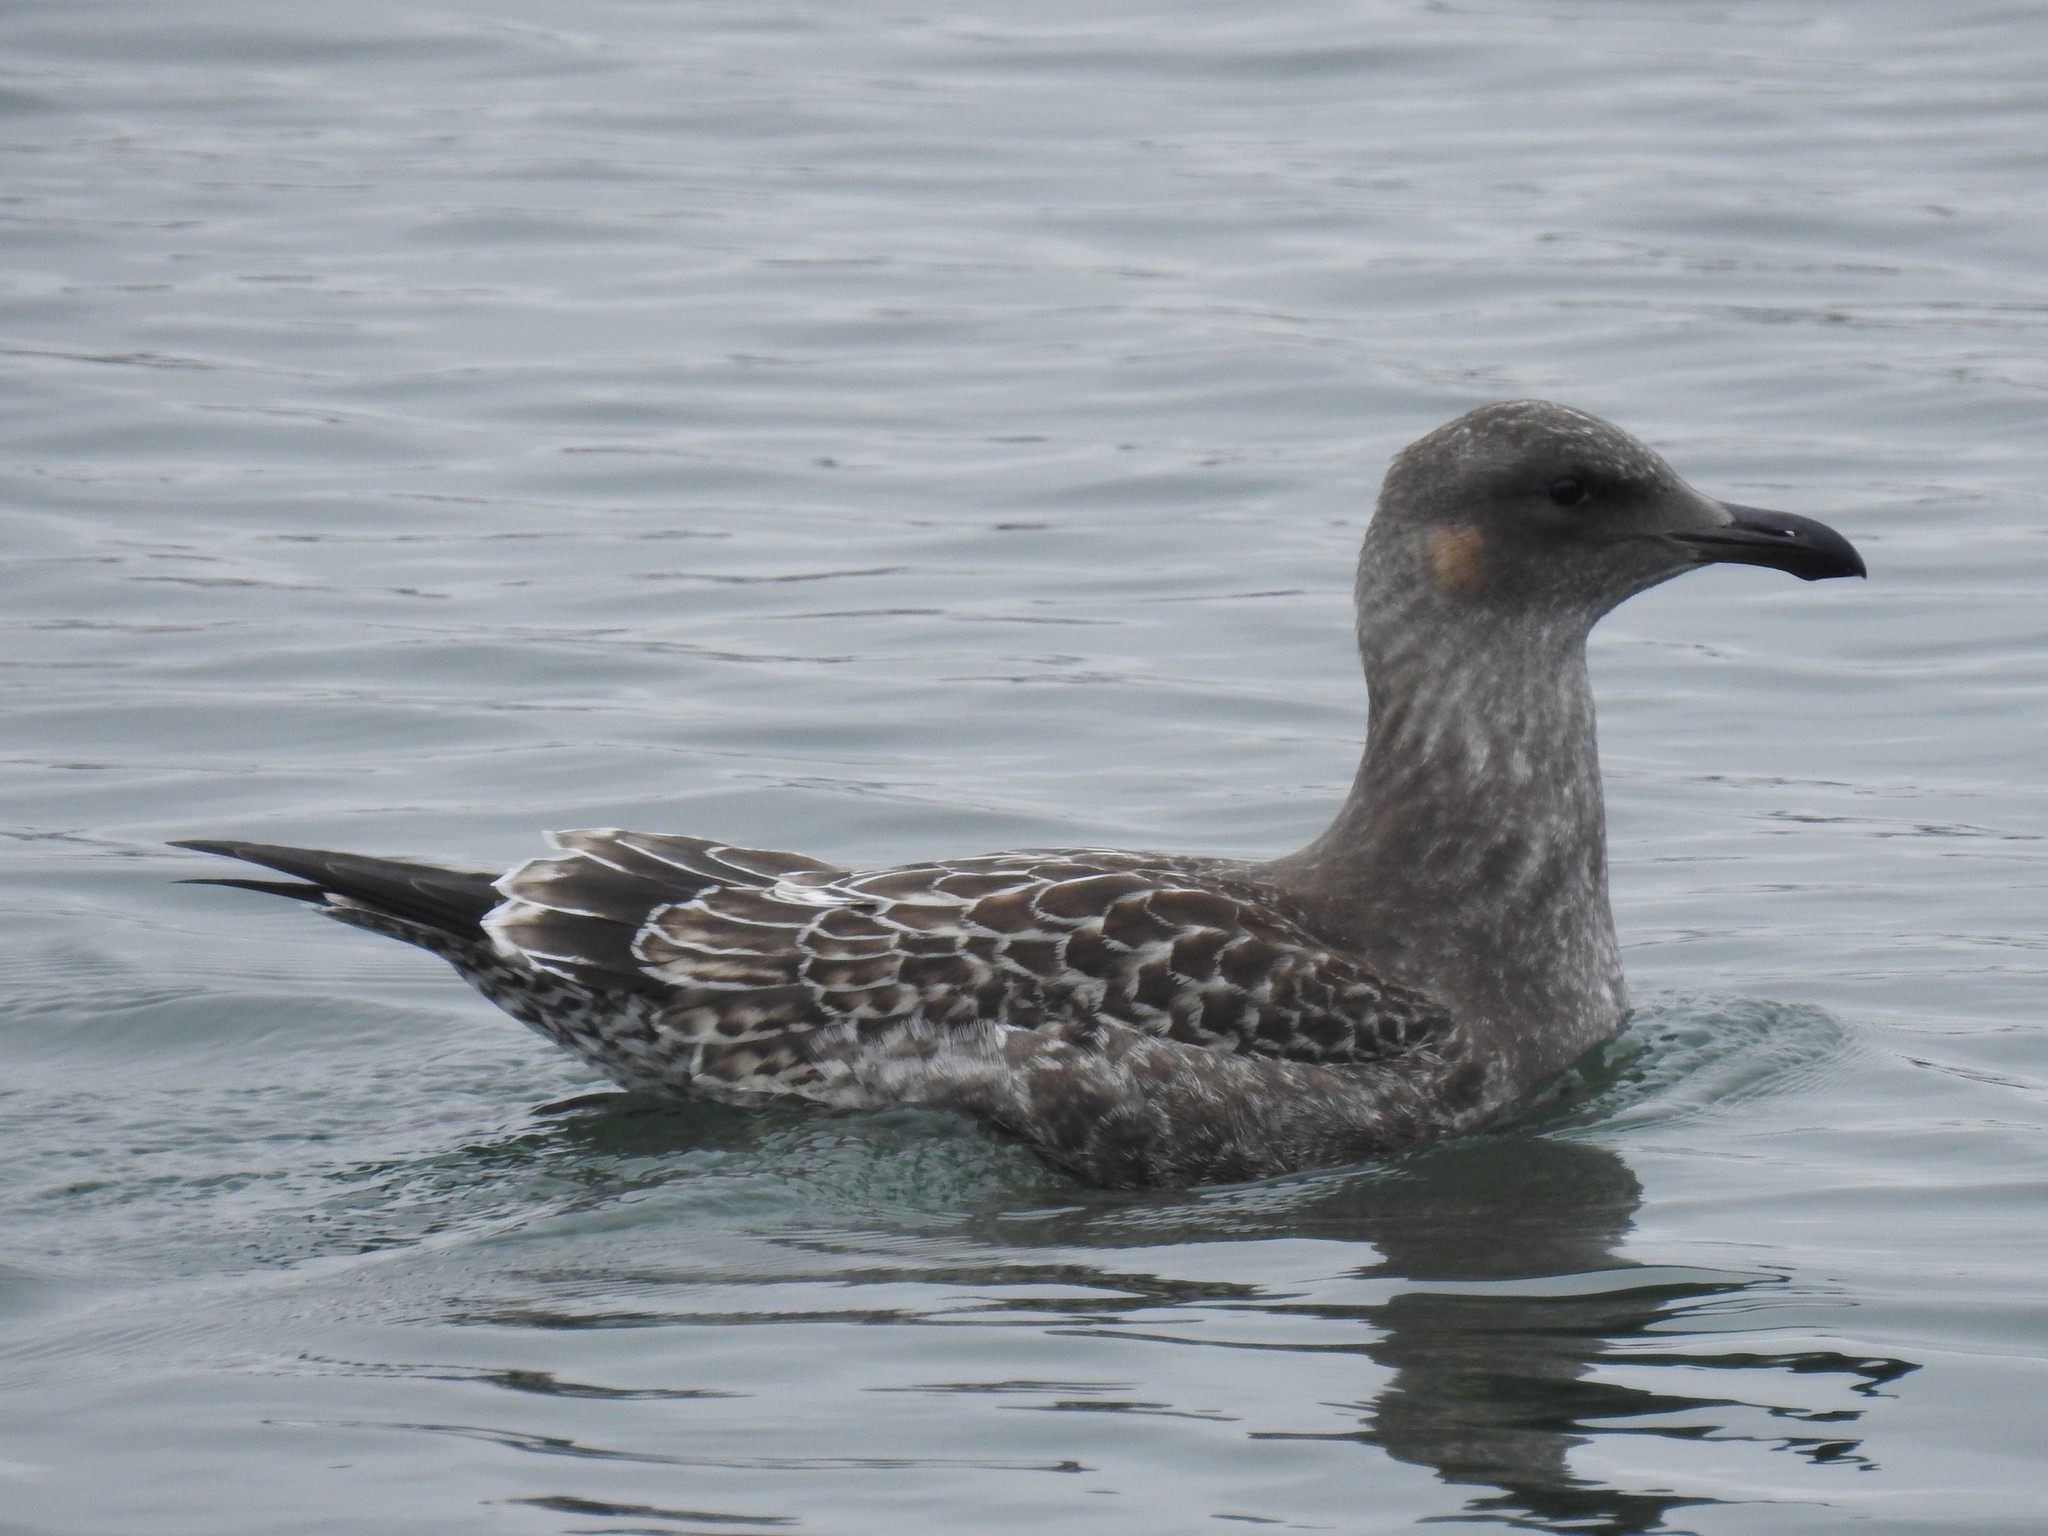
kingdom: Animalia
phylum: Chordata
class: Aves
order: Charadriiformes
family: Laridae
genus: Larus
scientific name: Larus occidentalis
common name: Western gull
